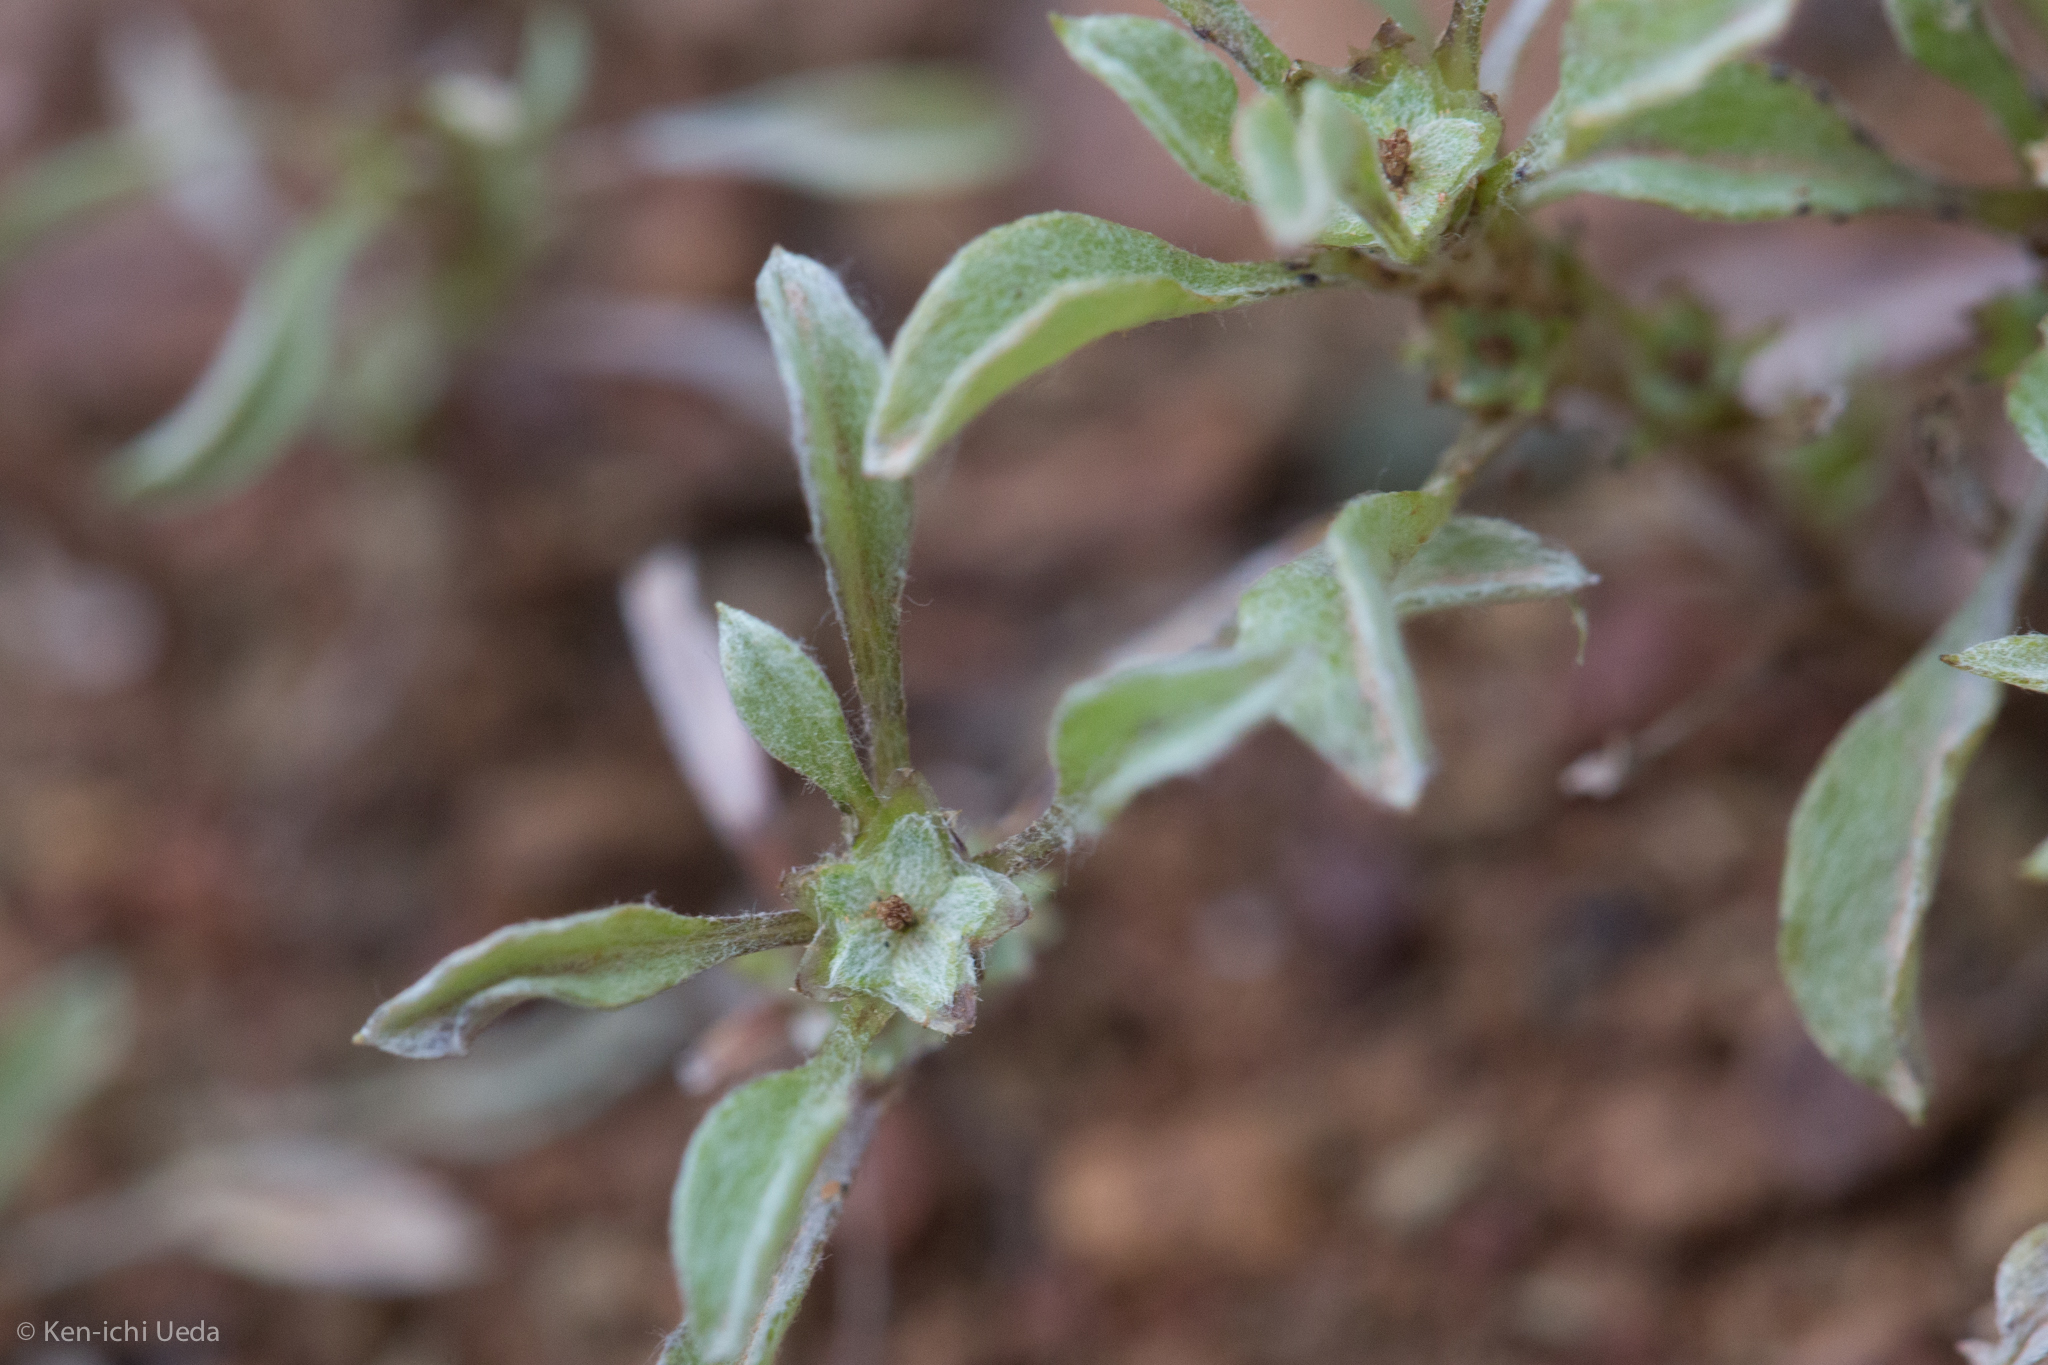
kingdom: Plantae
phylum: Tracheophyta
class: Magnoliopsida
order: Asterales
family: Asteraceae
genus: Hesperevax
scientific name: Hesperevax sparsiflora
